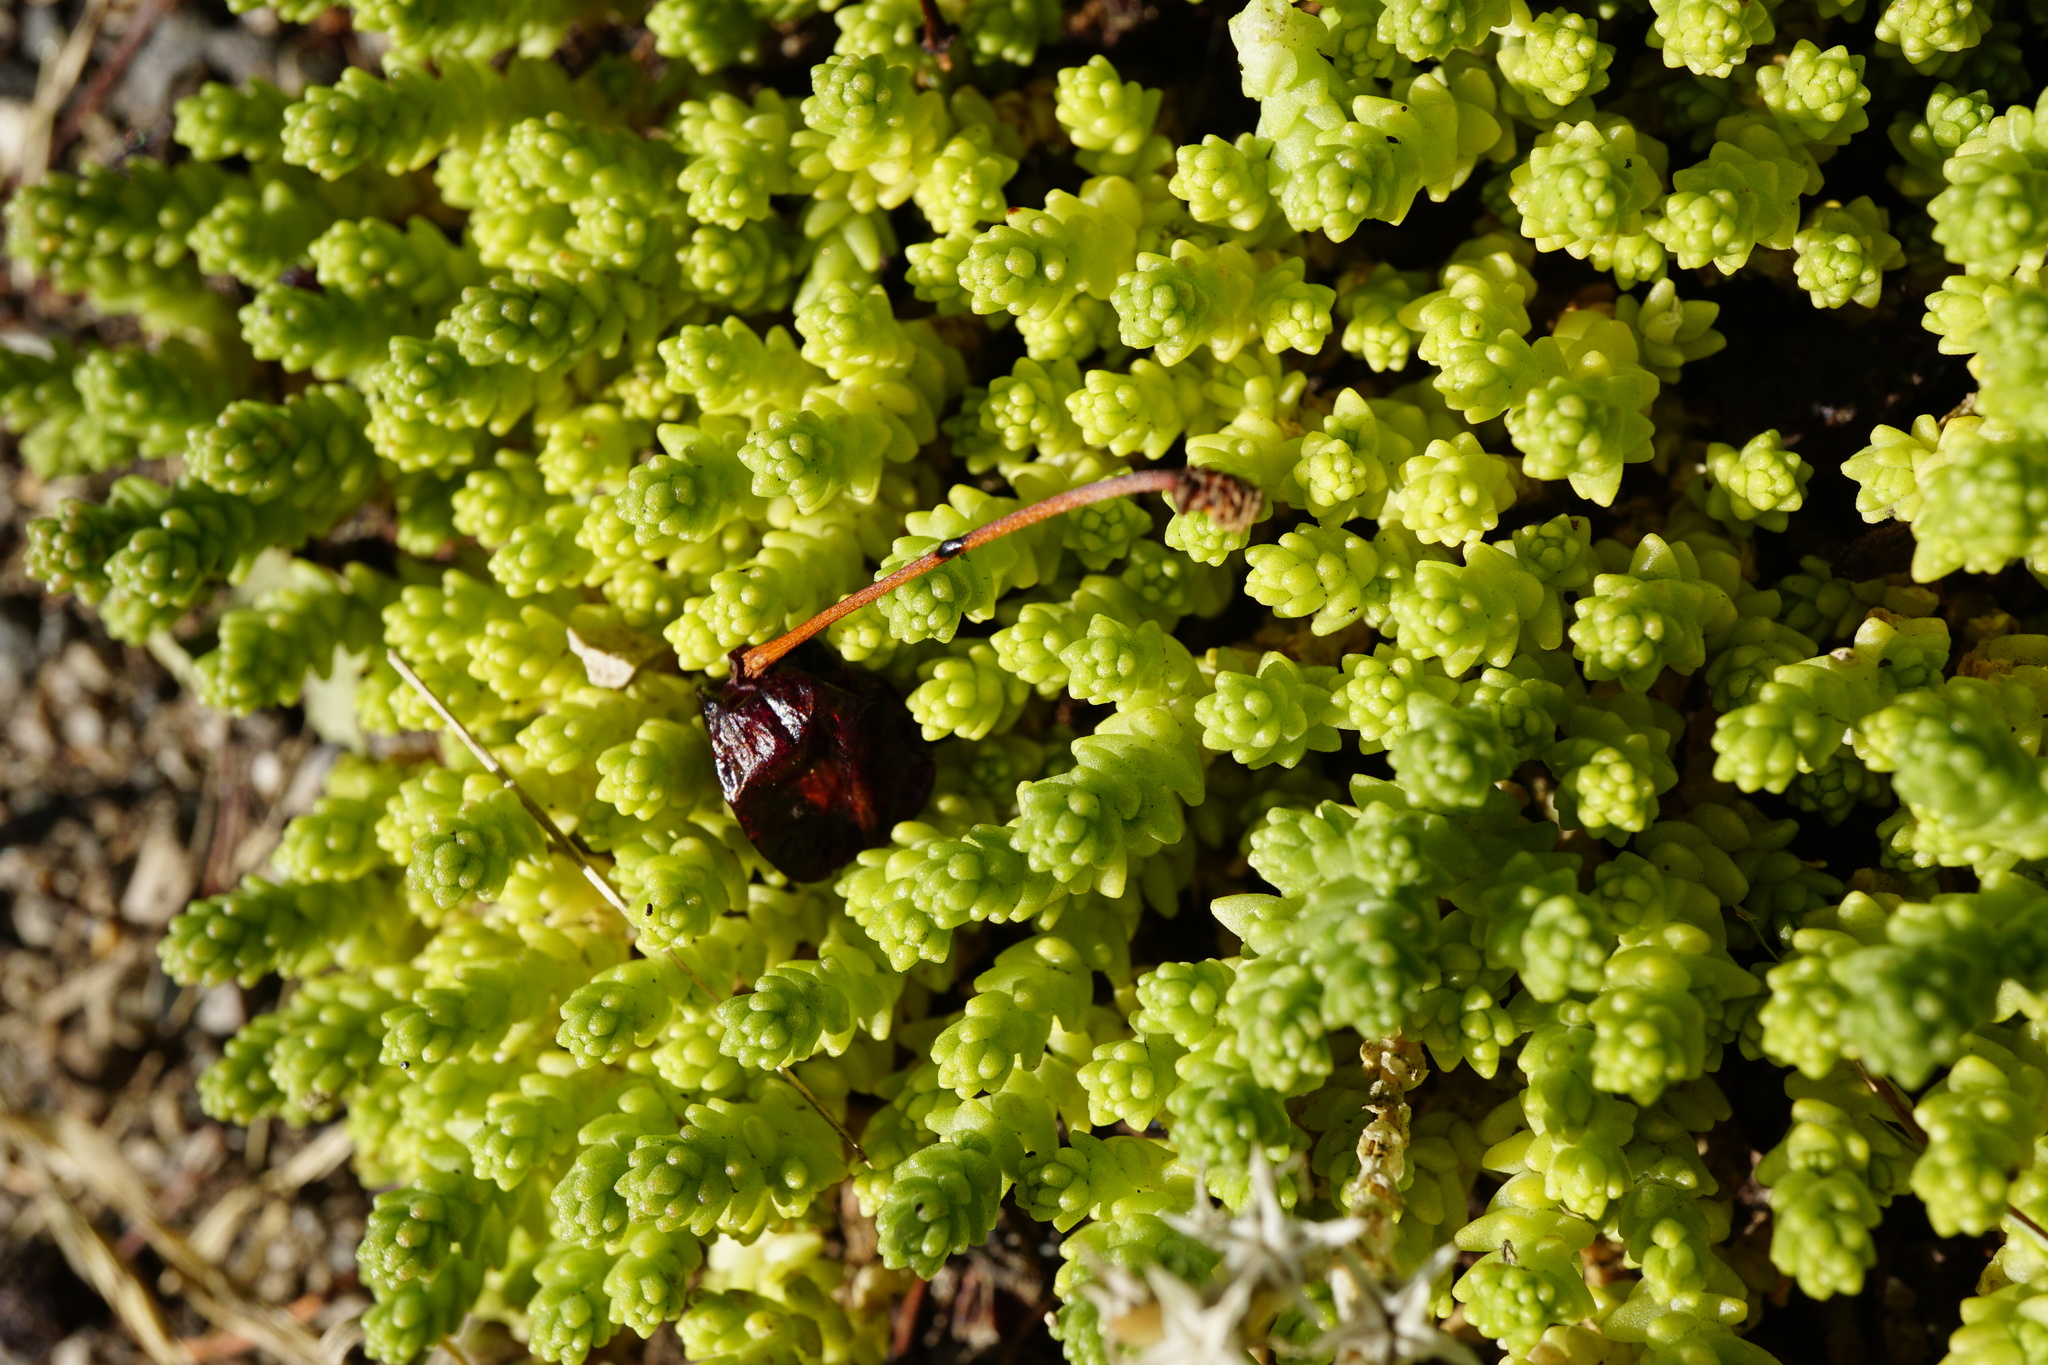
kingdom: Plantae
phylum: Tracheophyta
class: Magnoliopsida
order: Saxifragales
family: Crassulaceae
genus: Sedum
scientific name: Sedum acre
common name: Biting stonecrop
